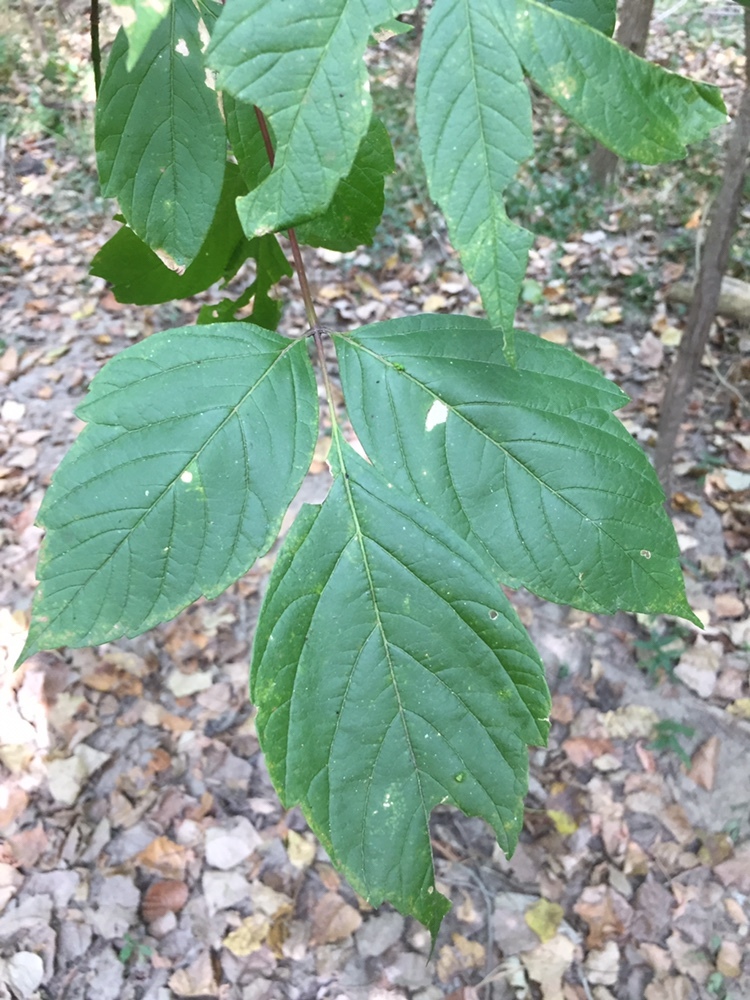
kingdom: Plantae
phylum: Tracheophyta
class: Magnoliopsida
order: Sapindales
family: Sapindaceae
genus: Acer
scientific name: Acer negundo
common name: Ashleaf maple
